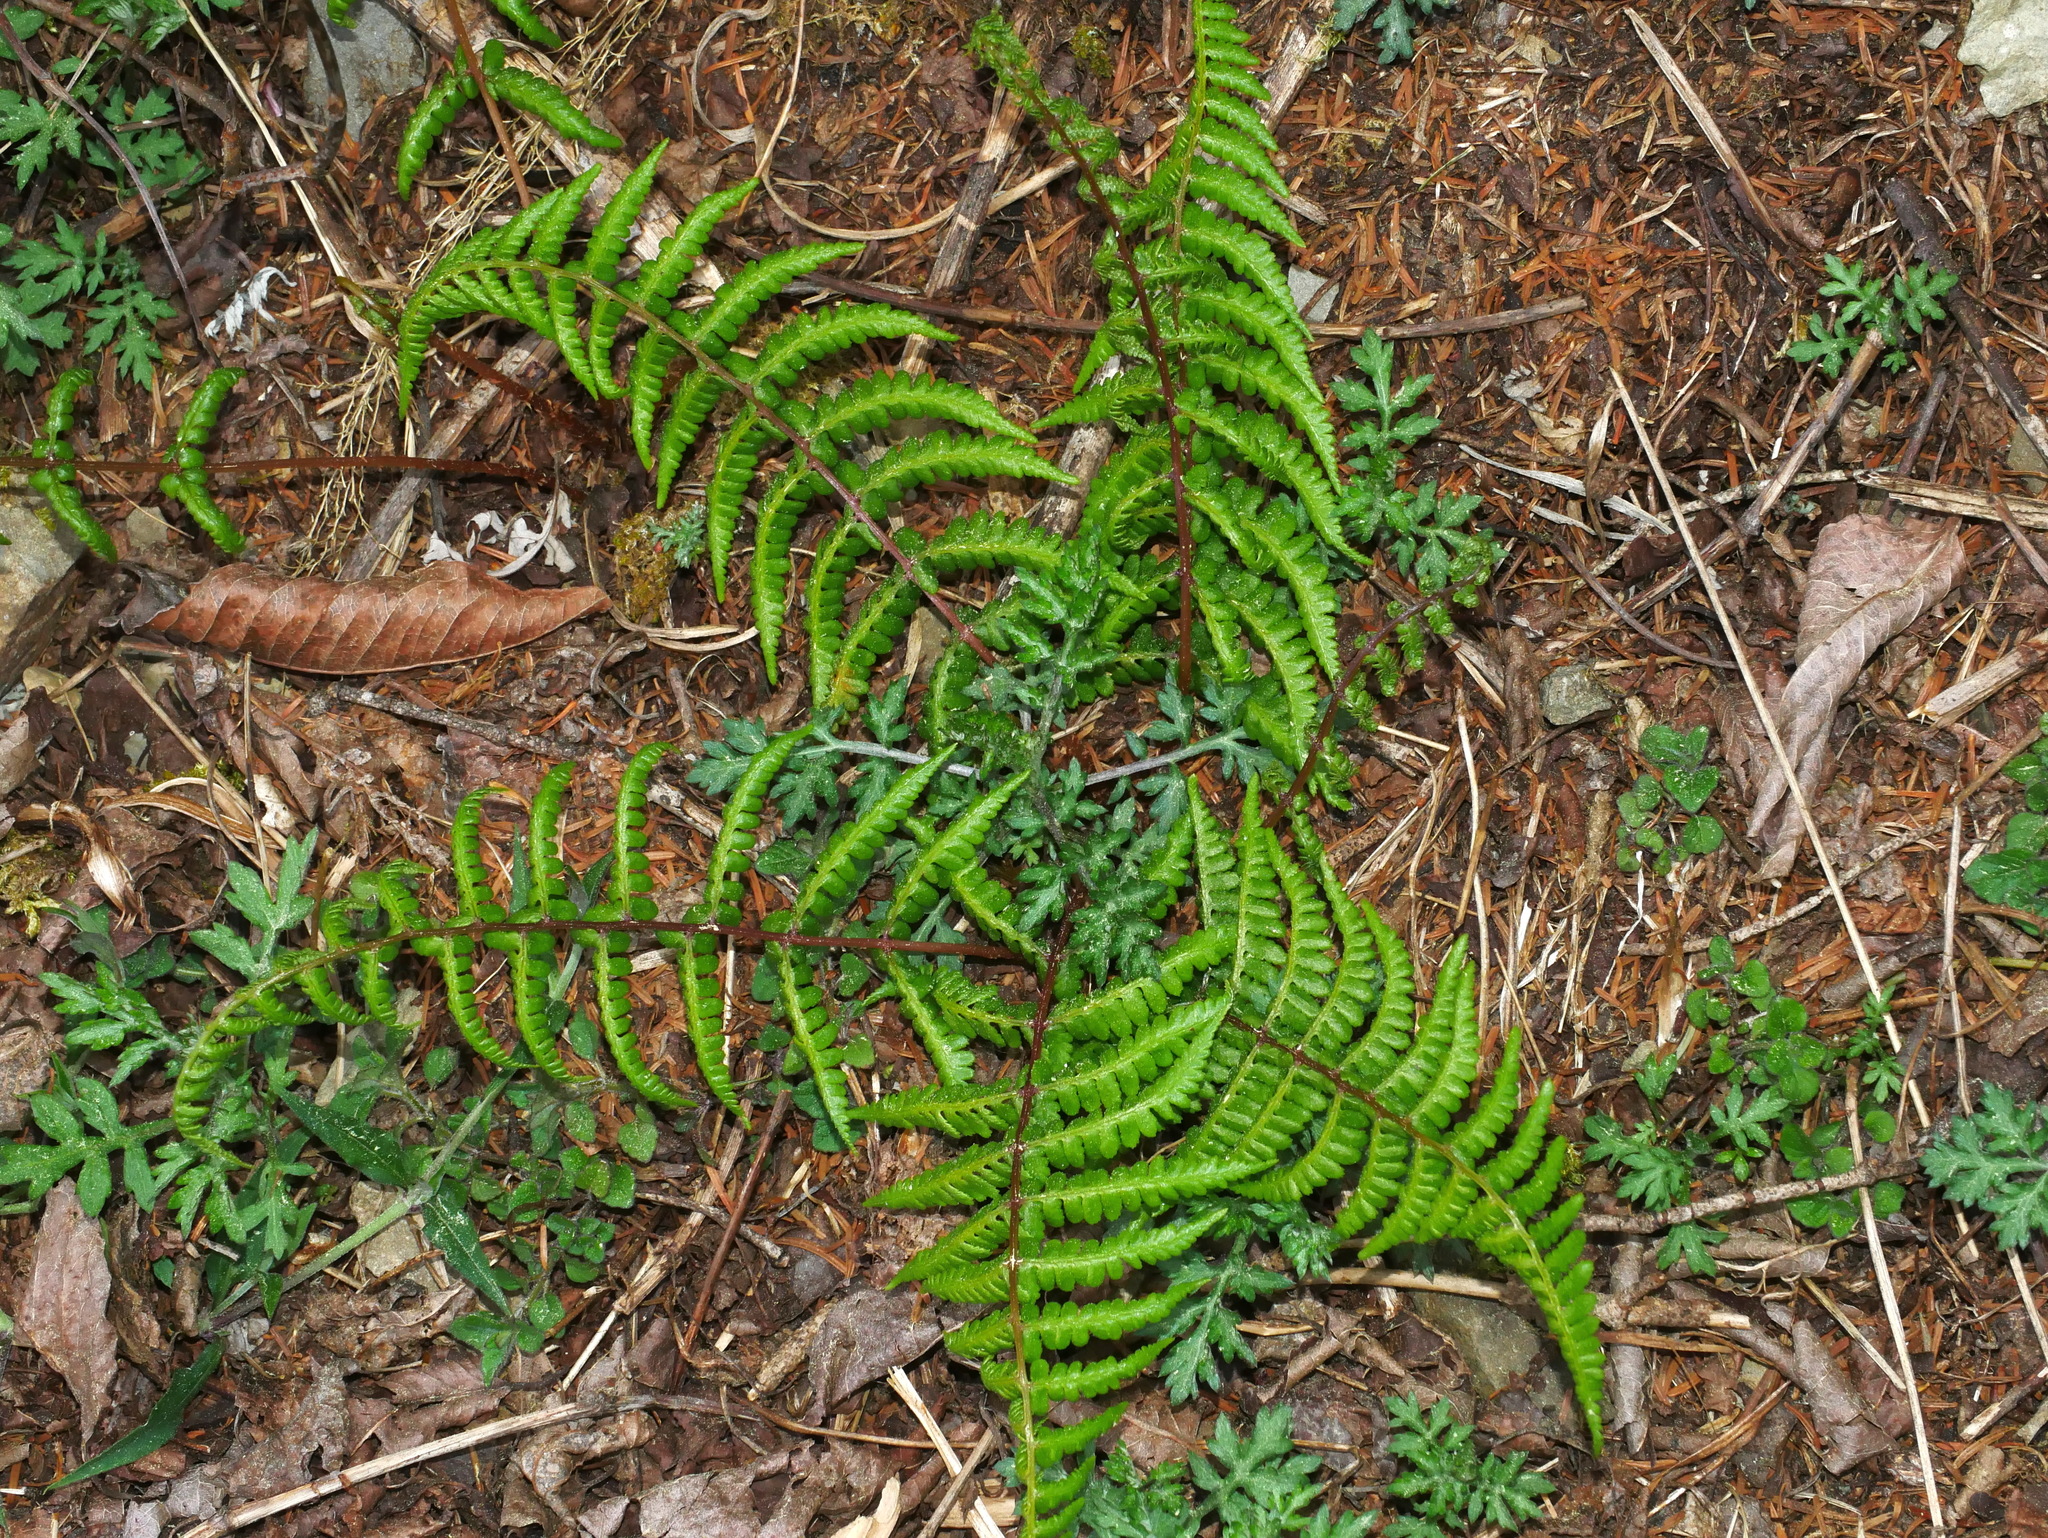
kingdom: Plantae
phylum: Tracheophyta
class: Polypodiopsida
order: Polypodiales
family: Athyriaceae
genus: Athyrium
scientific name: Athyrium oppositipennum
